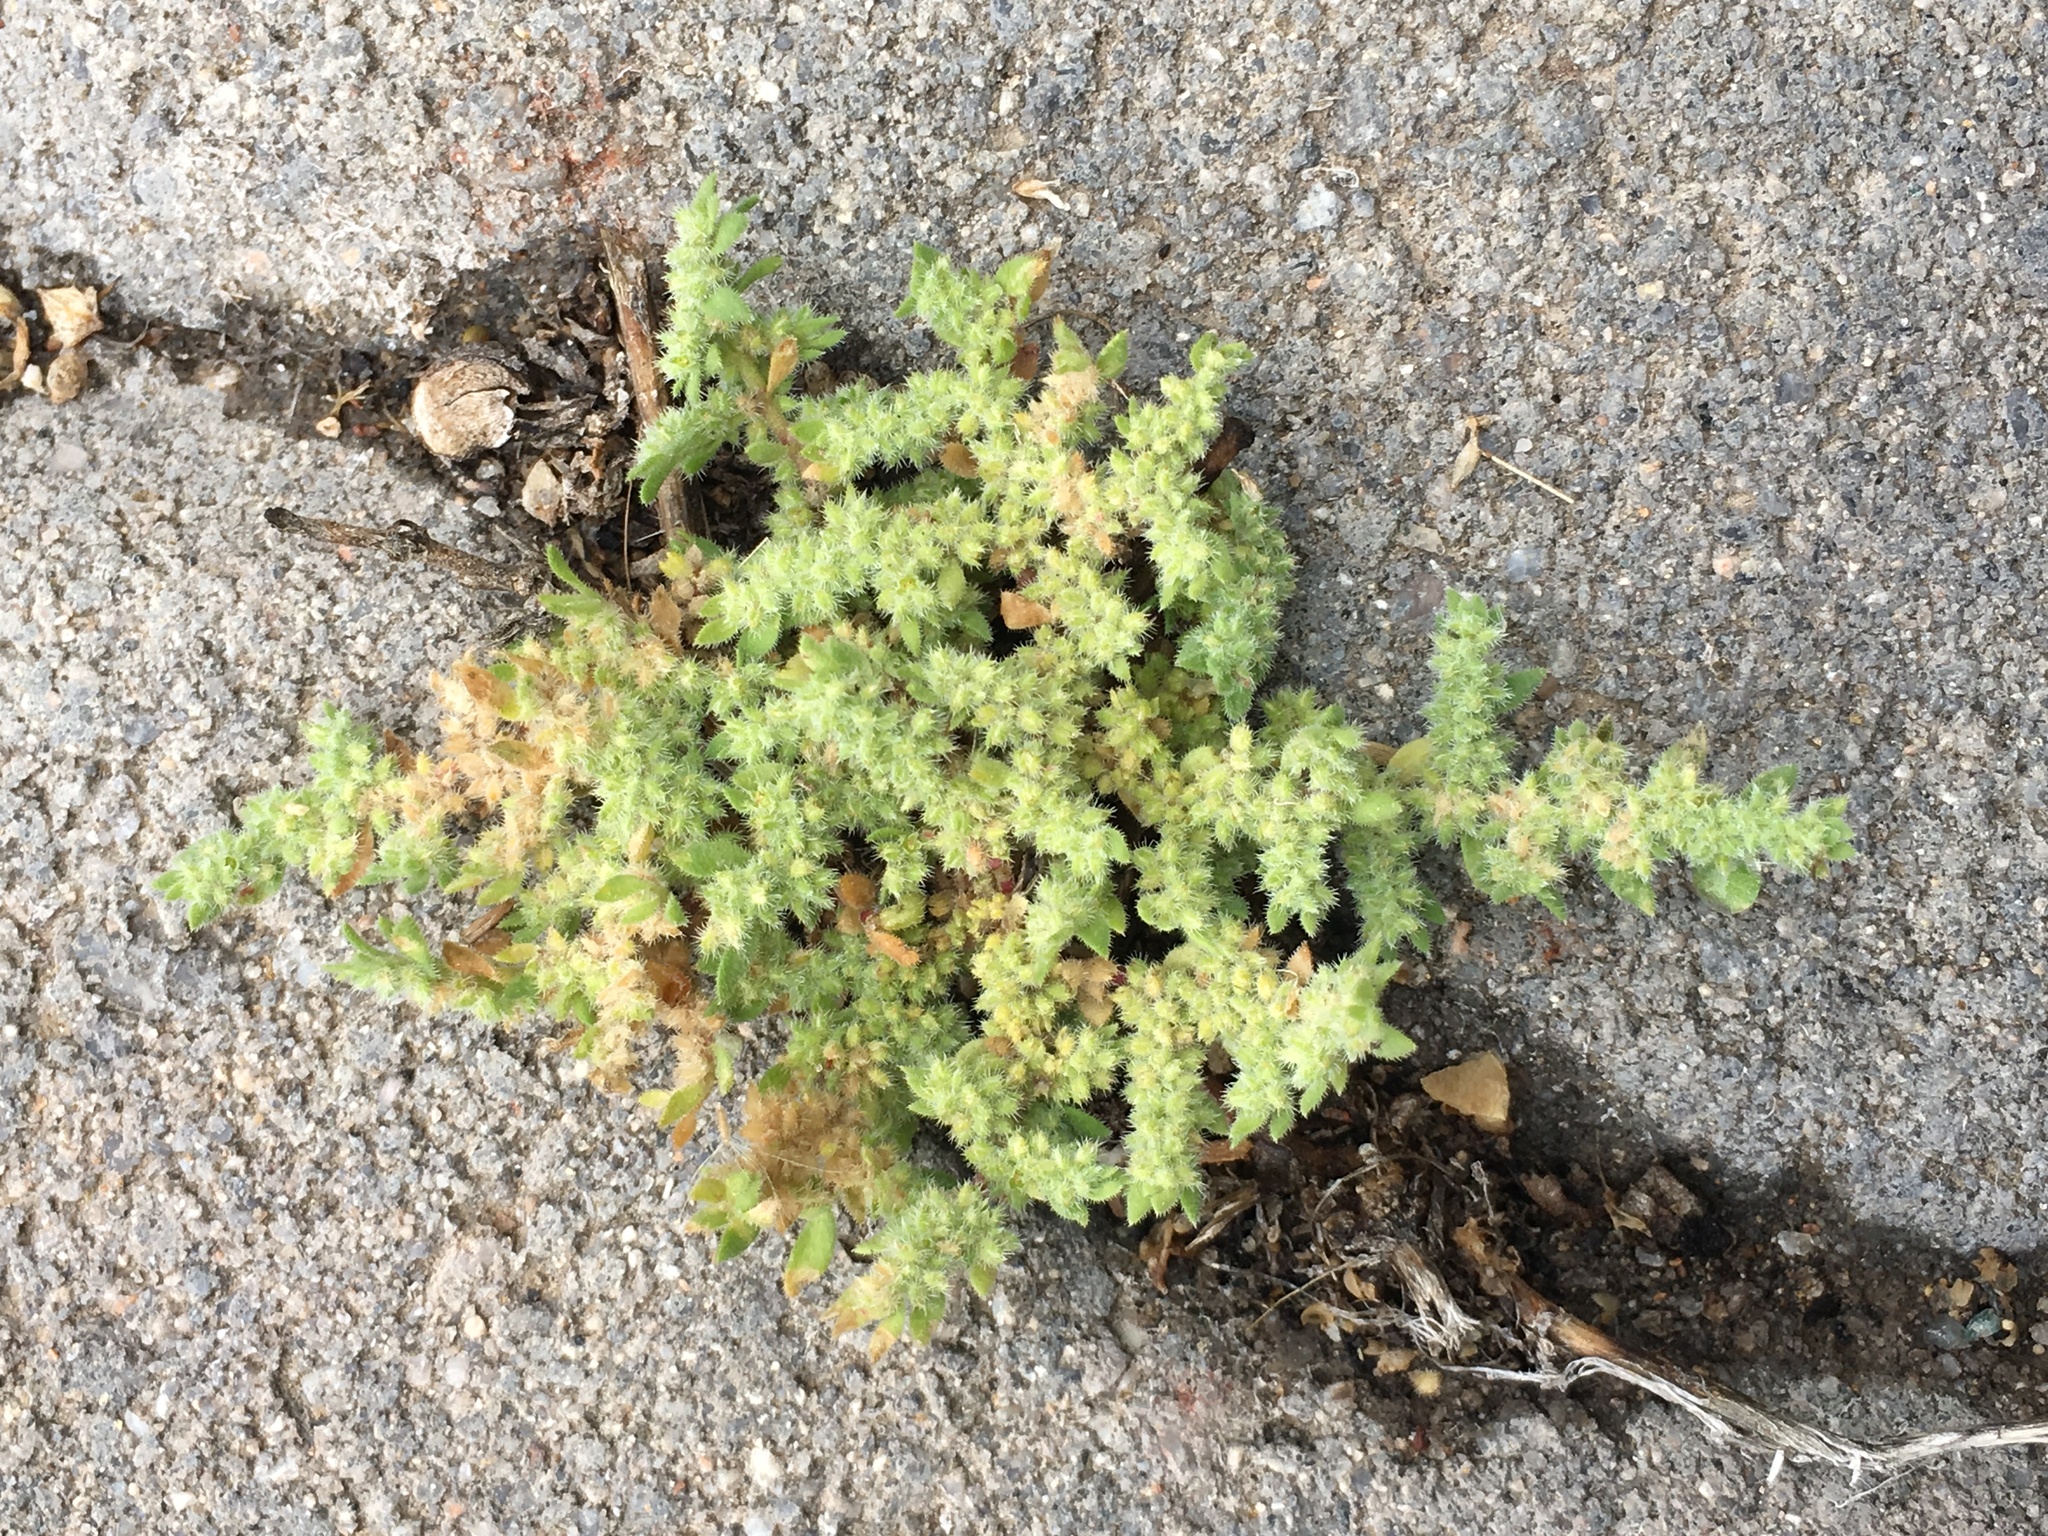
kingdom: Plantae
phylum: Tracheophyta
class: Magnoliopsida
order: Caryophyllales
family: Caryophyllaceae
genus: Herniaria
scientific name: Herniaria hirsuta
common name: Hairy rupturewort
